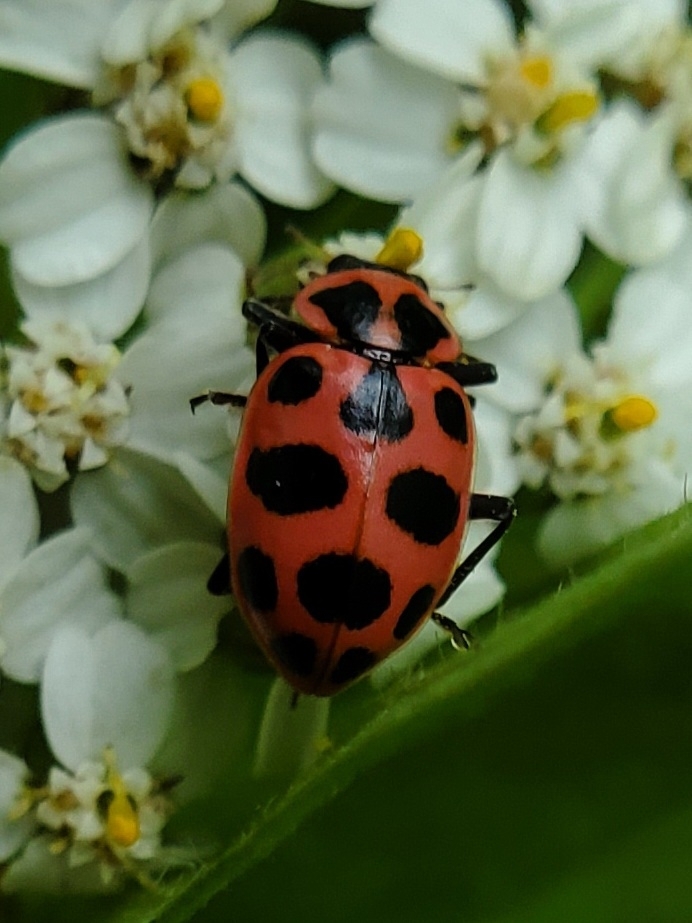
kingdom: Animalia
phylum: Arthropoda
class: Insecta
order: Coleoptera
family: Coccinellidae
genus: Coleomegilla
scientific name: Coleomegilla maculata
